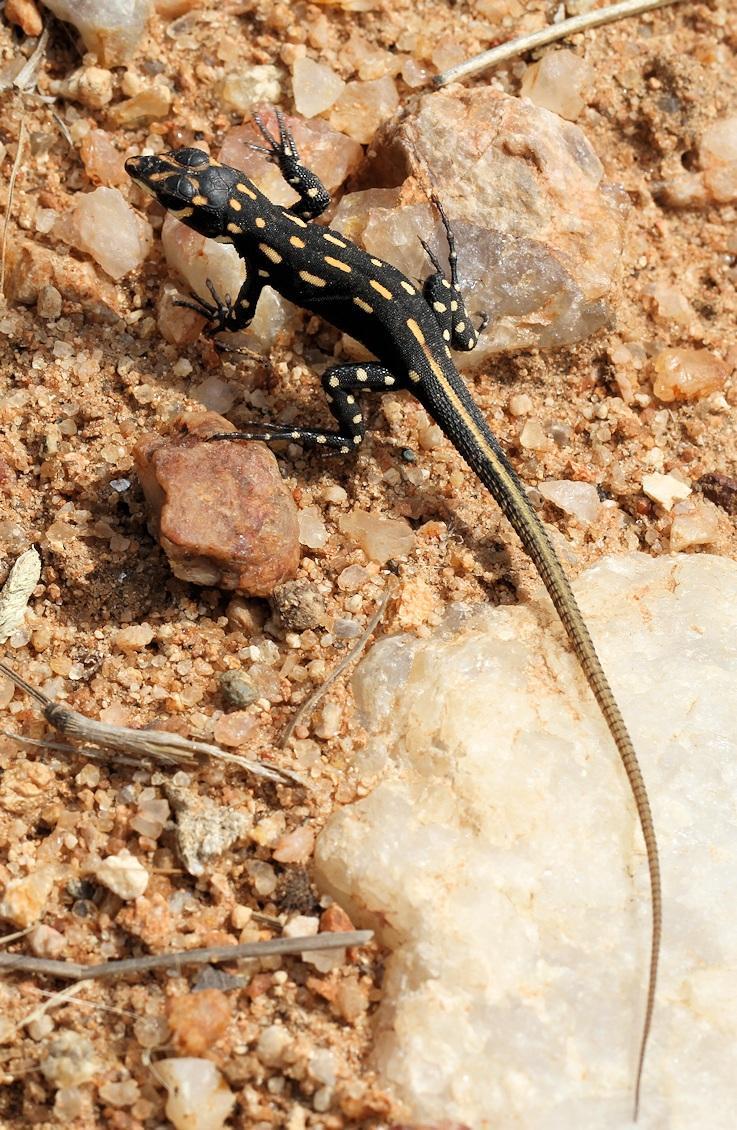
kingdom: Animalia
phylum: Chordata
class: Squamata
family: Lacertidae
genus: Heliobolus
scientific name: Heliobolus lugubris
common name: Bushveld lizard
